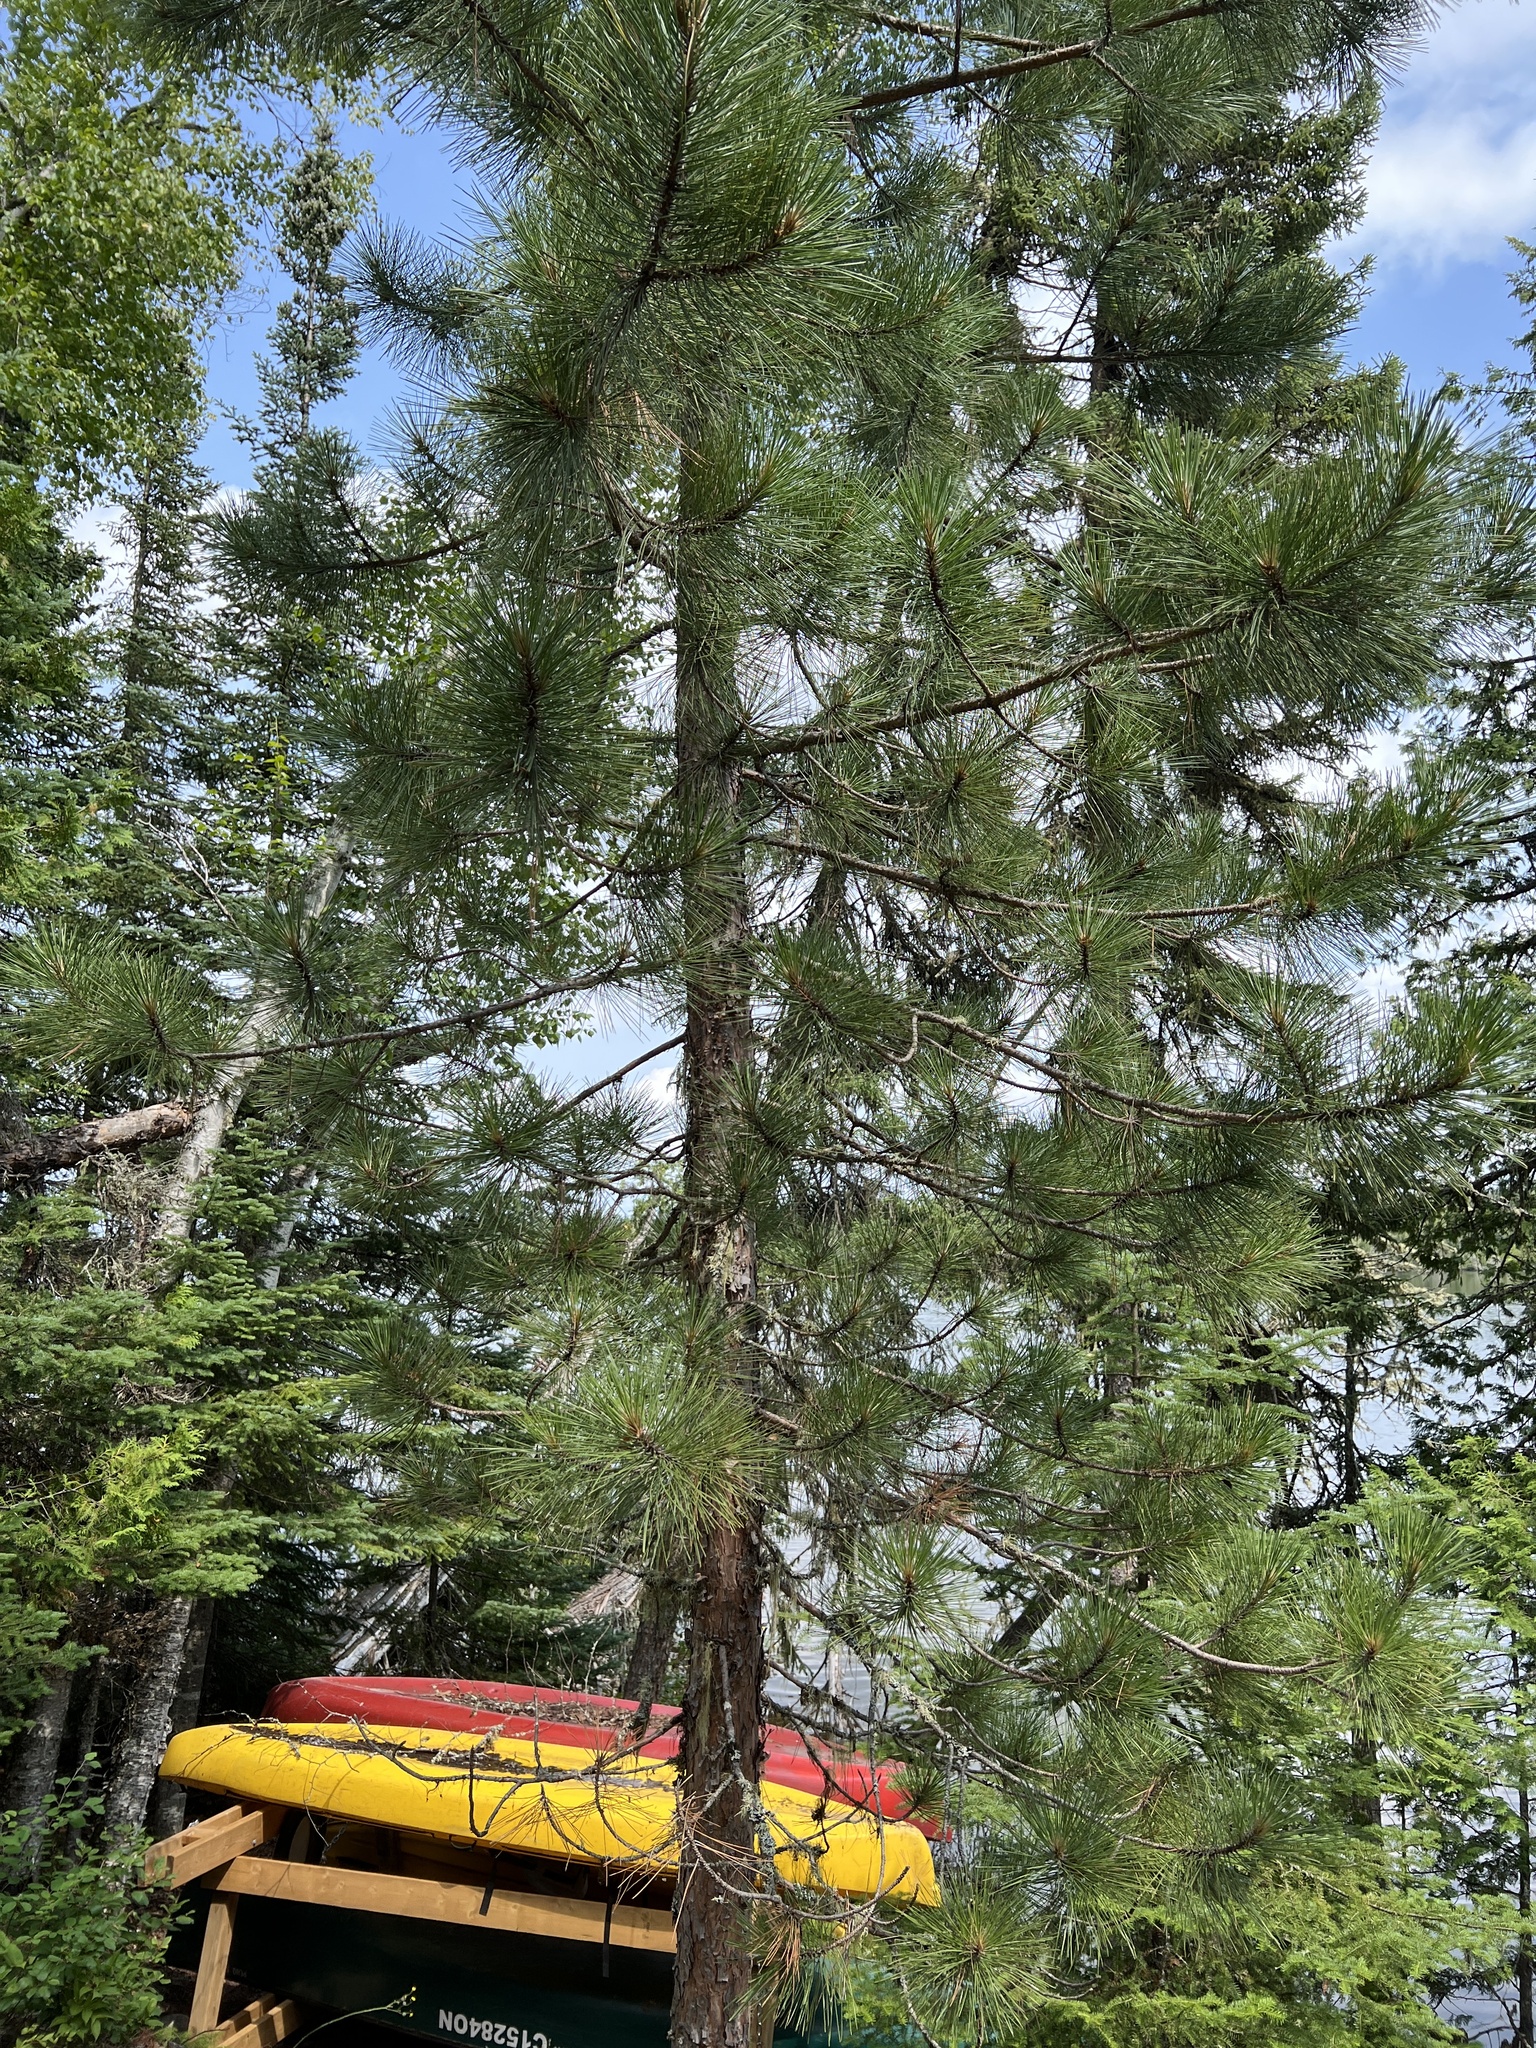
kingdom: Plantae
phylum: Tracheophyta
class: Pinopsida
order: Pinales
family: Pinaceae
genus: Pinus
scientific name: Pinus resinosa
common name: Norway pine
